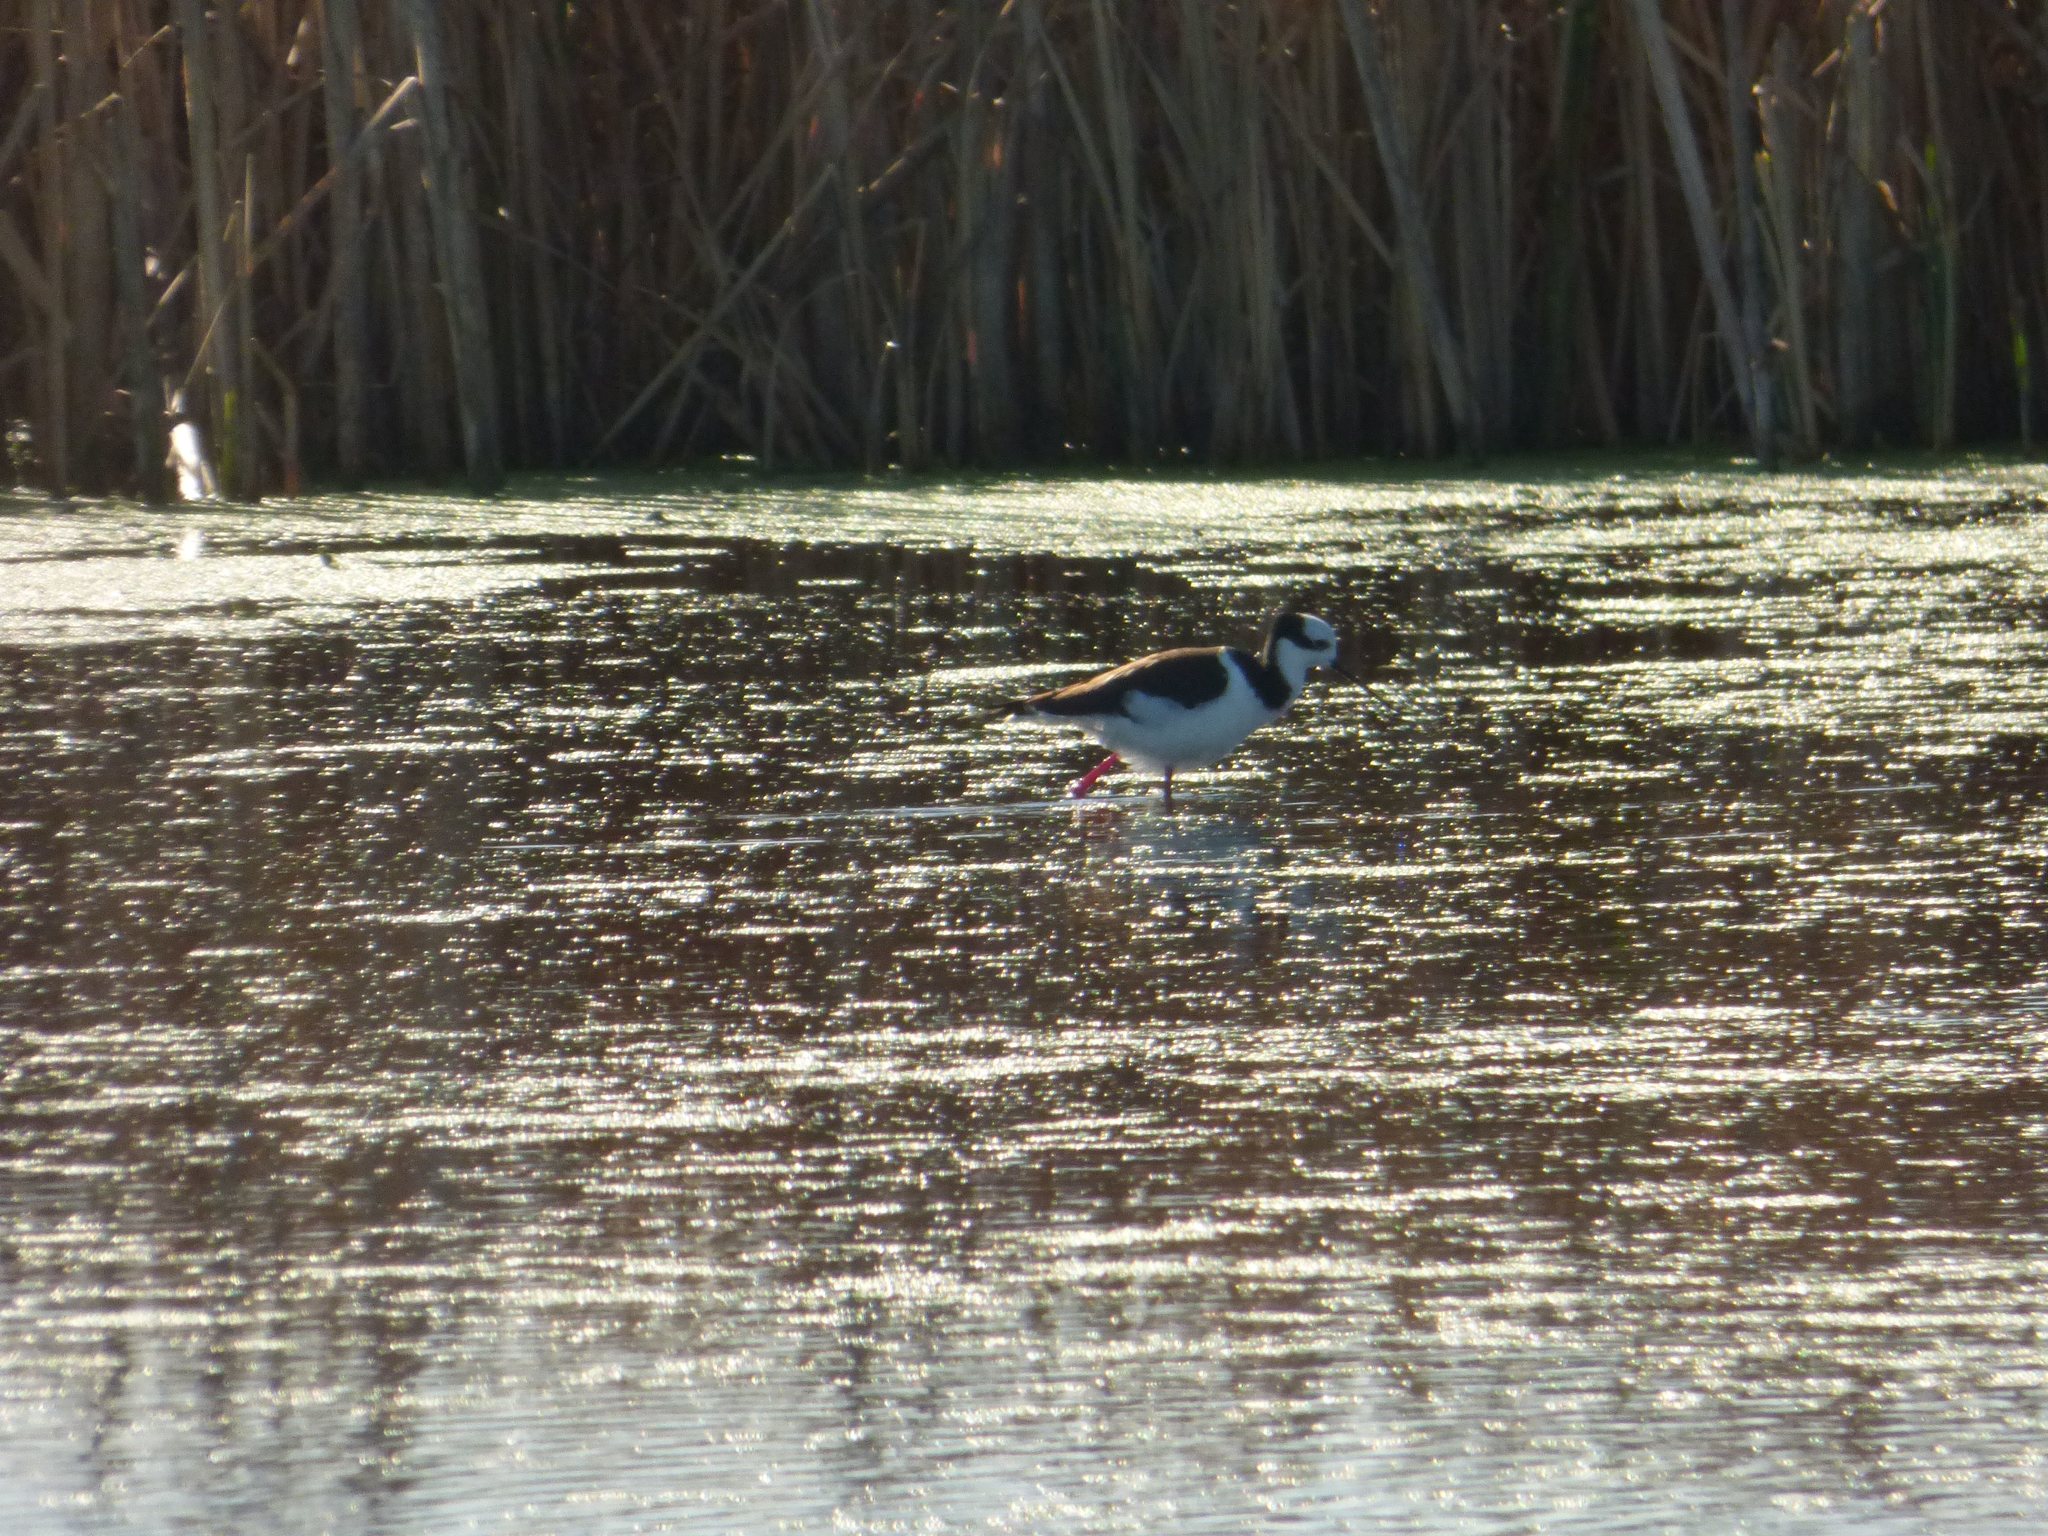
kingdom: Animalia
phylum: Chordata
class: Aves
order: Charadriiformes
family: Recurvirostridae
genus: Himantopus
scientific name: Himantopus mexicanus
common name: Black-necked stilt
